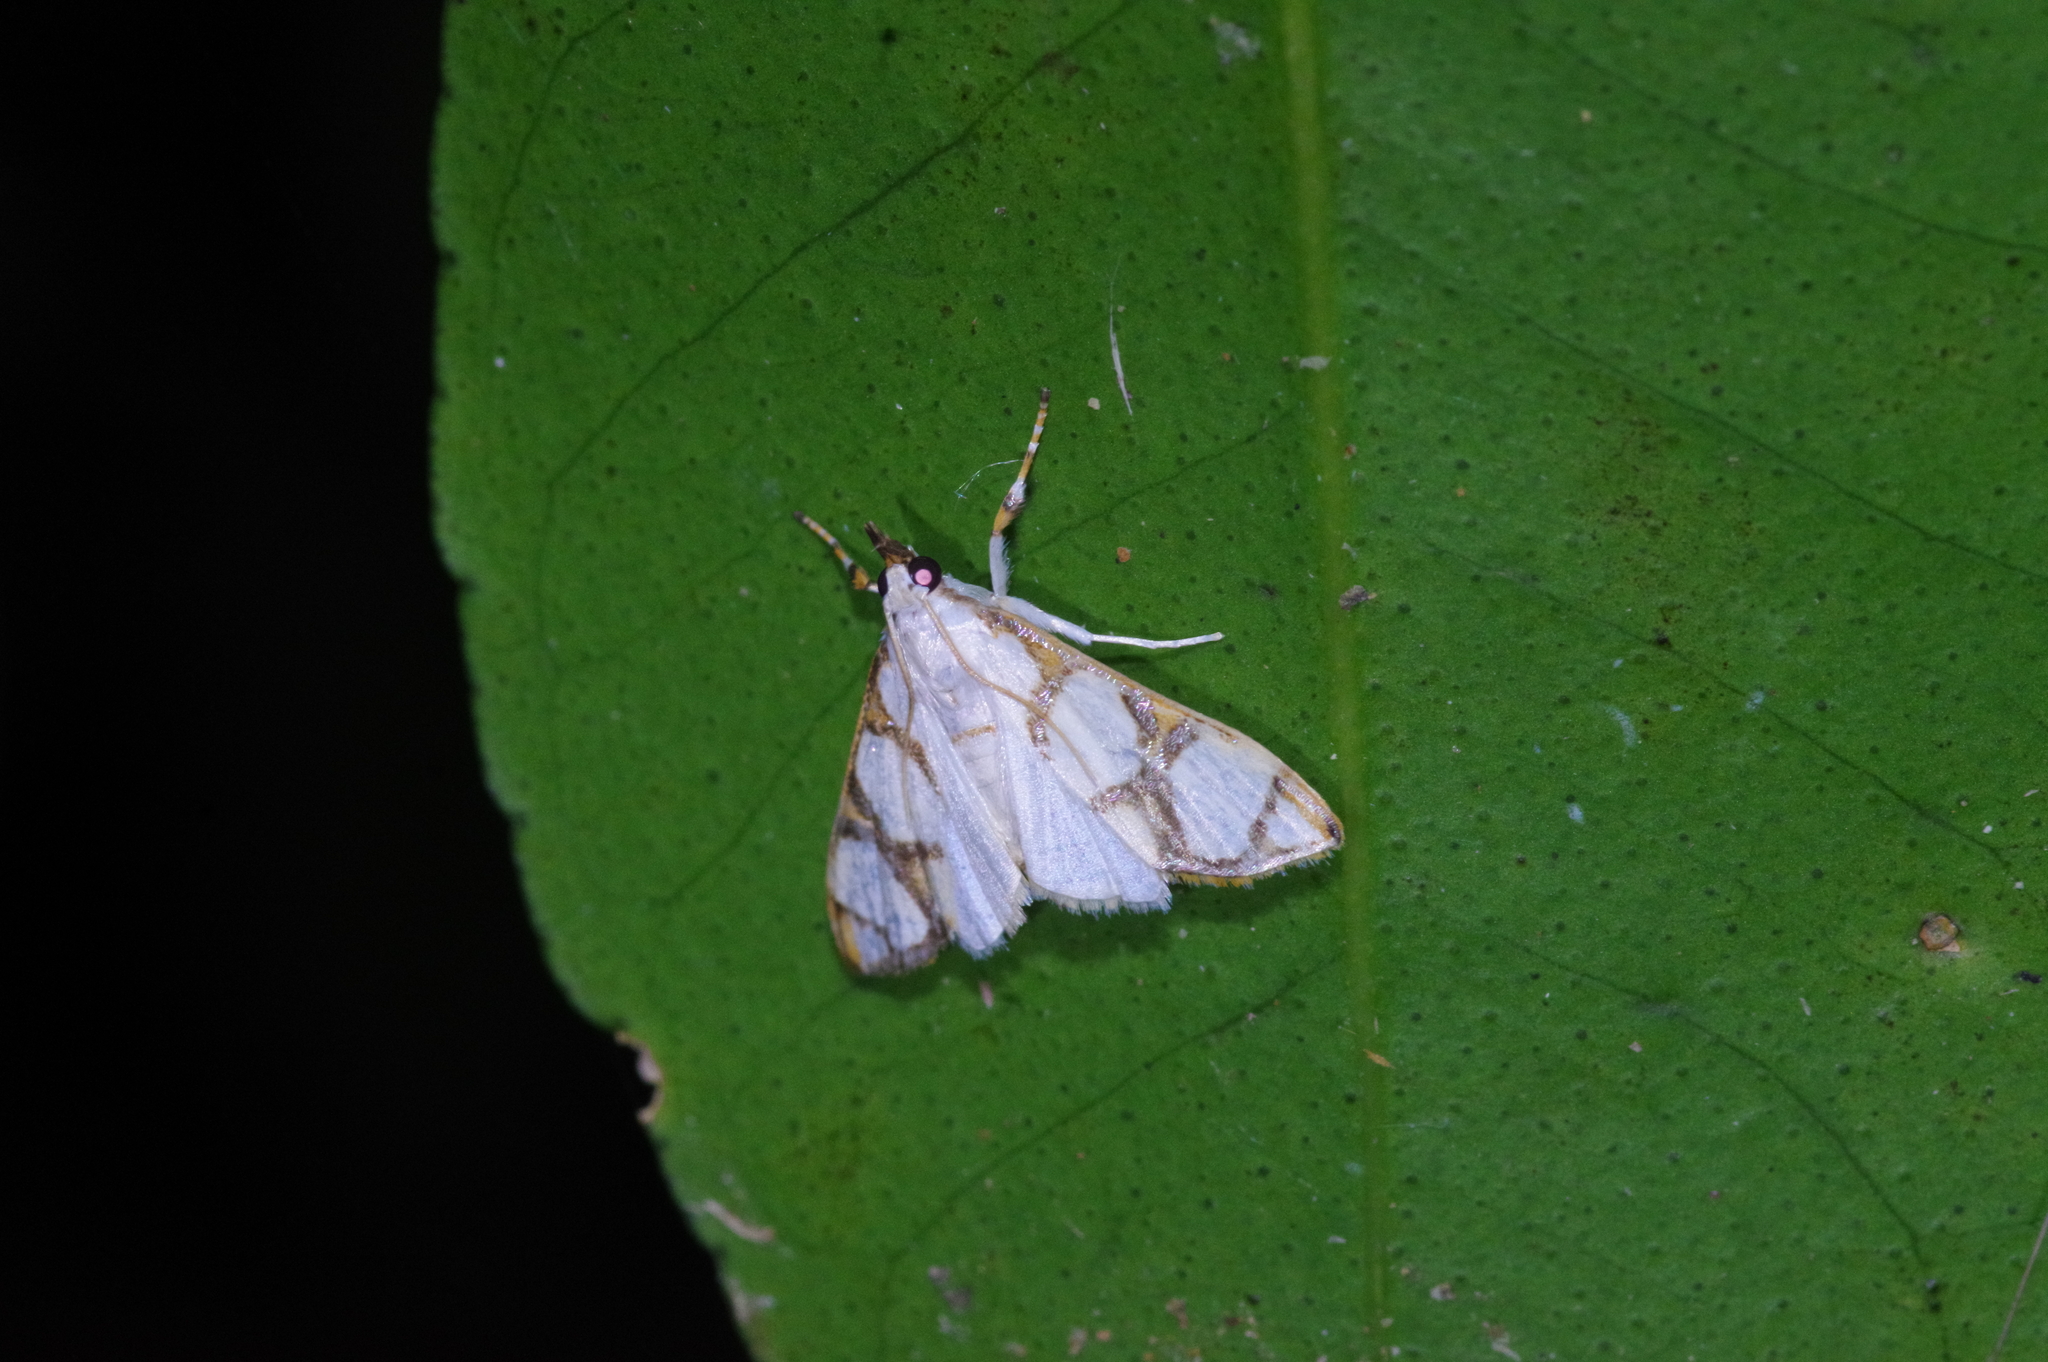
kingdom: Animalia
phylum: Arthropoda
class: Insecta
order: Lepidoptera
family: Crambidae
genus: Cirrhochrista
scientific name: Cirrhochrista kosemponialis
